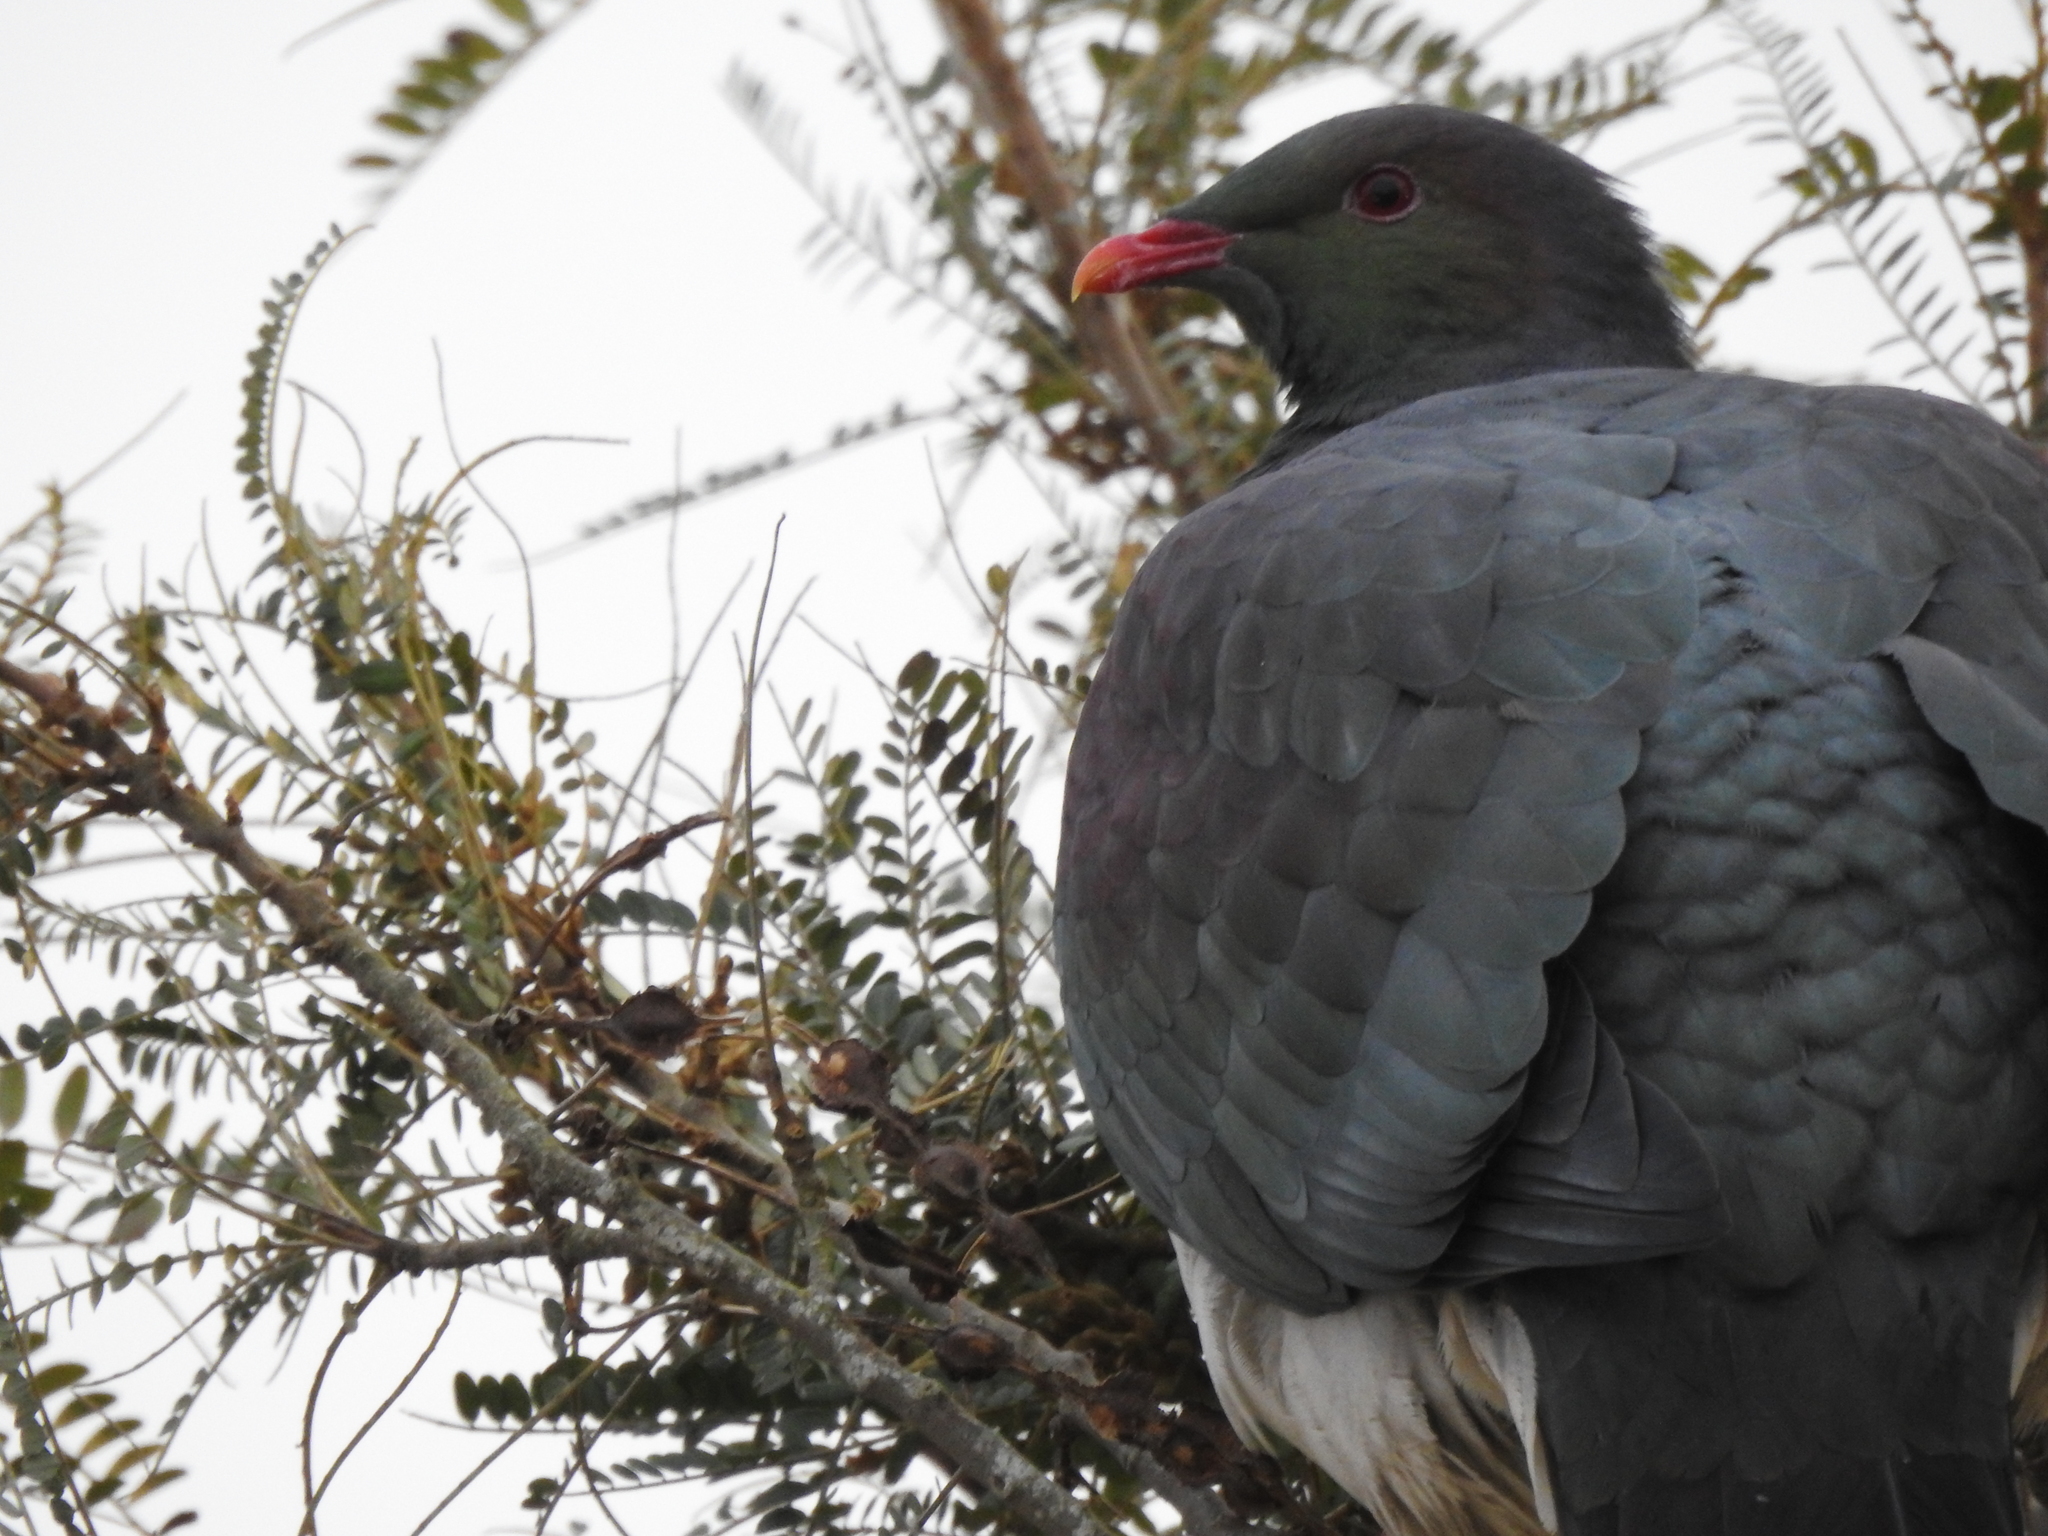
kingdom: Animalia
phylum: Chordata
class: Aves
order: Columbiformes
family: Columbidae
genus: Hemiphaga
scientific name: Hemiphaga novaeseelandiae
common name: New zealand pigeon
